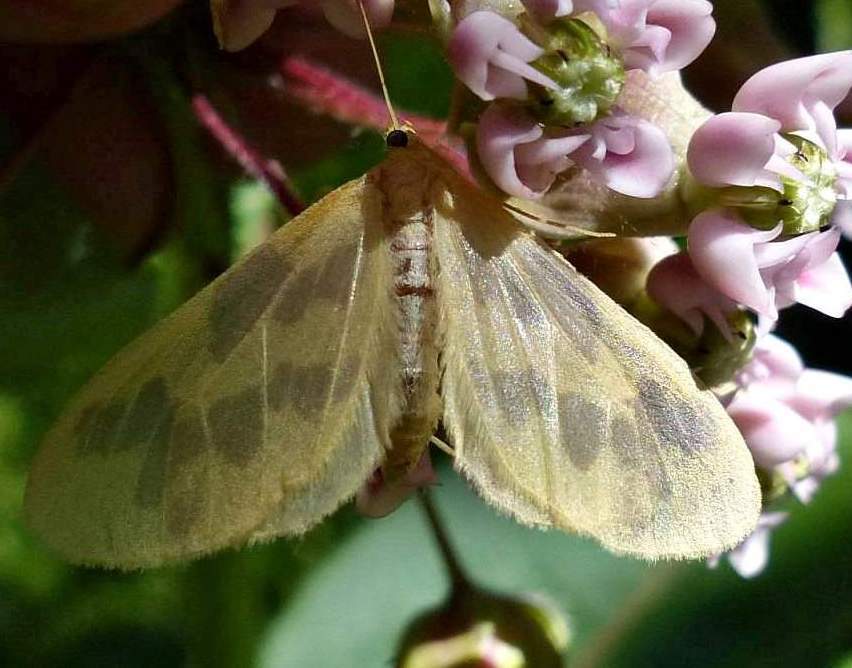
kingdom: Animalia
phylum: Arthropoda
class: Insecta
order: Lepidoptera
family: Geometridae
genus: Eubaphe
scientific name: Eubaphe mendica
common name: Beggar
